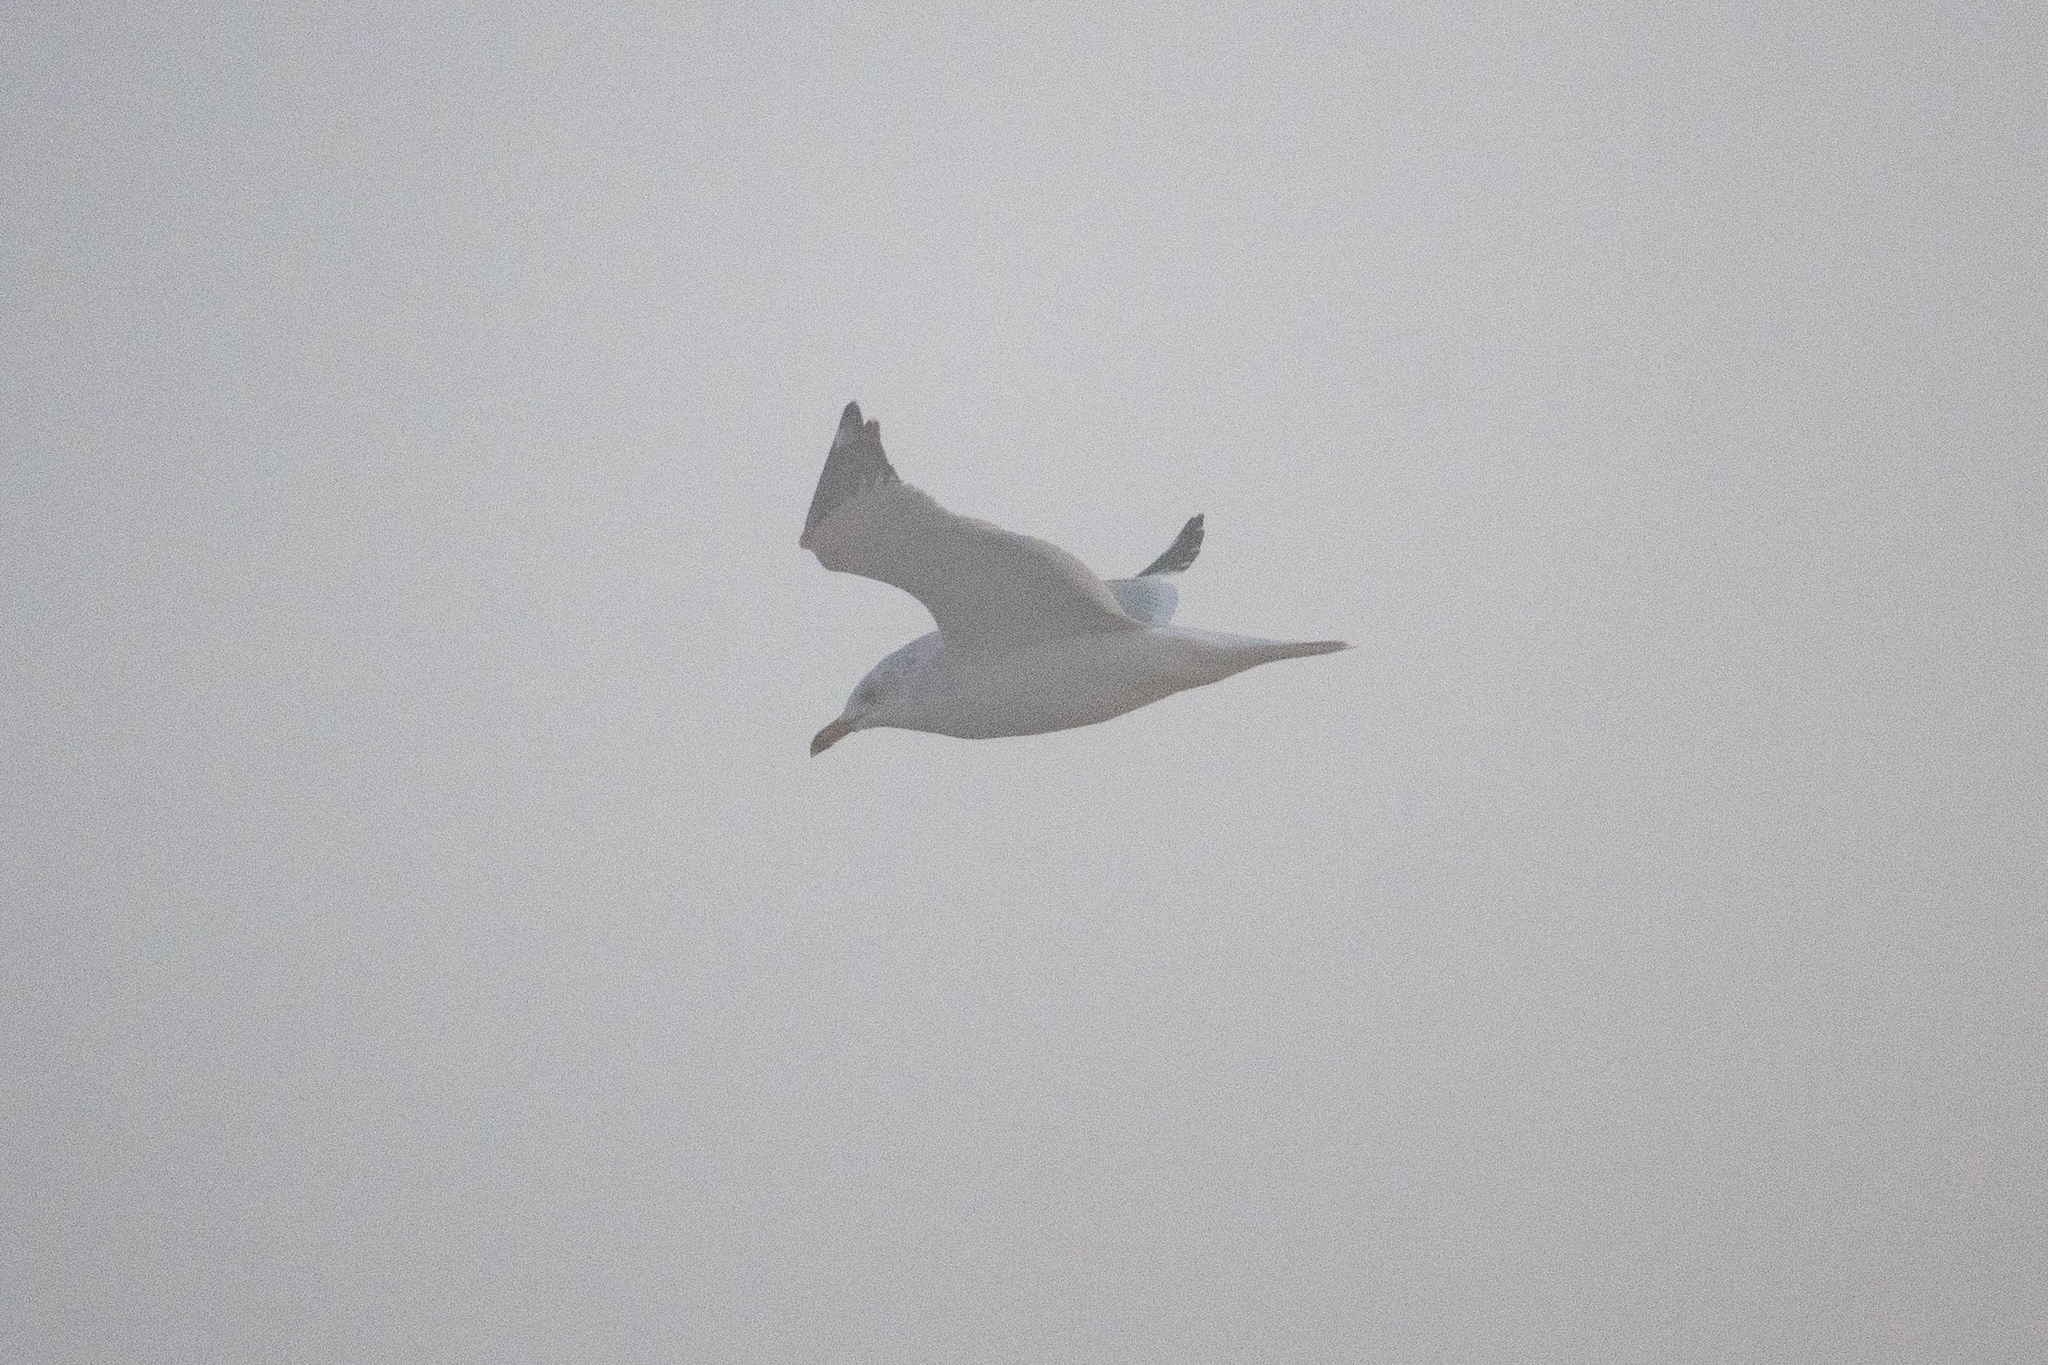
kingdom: Animalia
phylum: Chordata
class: Aves
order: Charadriiformes
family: Laridae
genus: Larus
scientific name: Larus delawarensis
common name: Ring-billed gull
